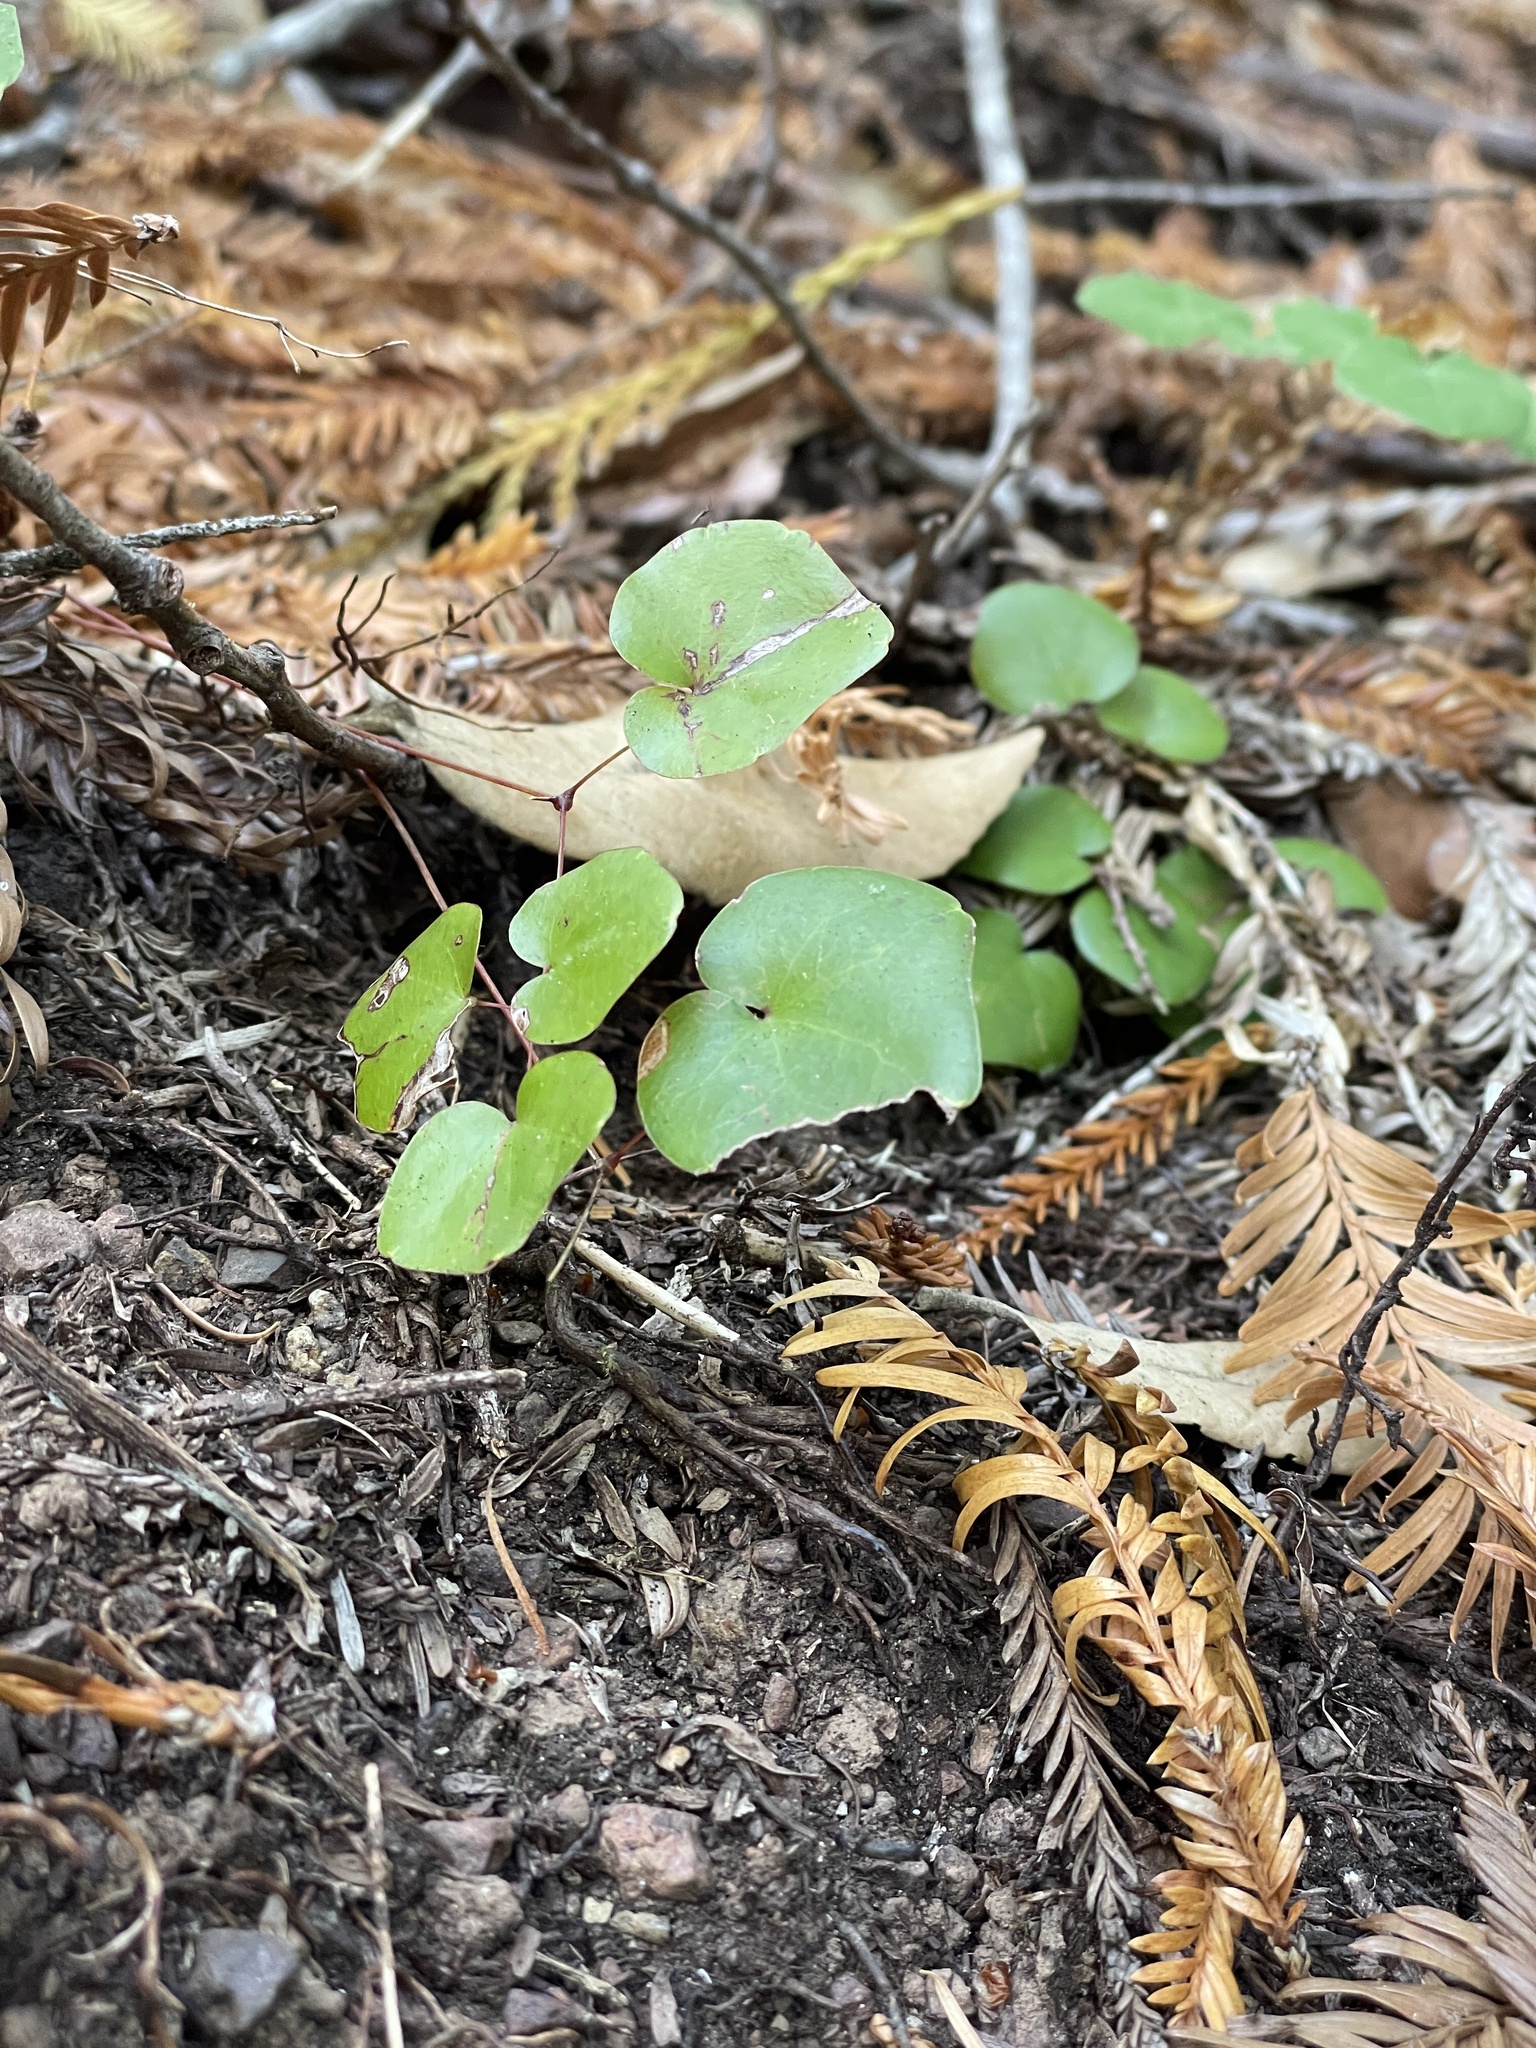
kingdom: Plantae
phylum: Tracheophyta
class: Magnoliopsida
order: Ranunculales
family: Berberidaceae
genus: Vancouveria
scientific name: Vancouveria planipetala
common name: Redwood-ivy
